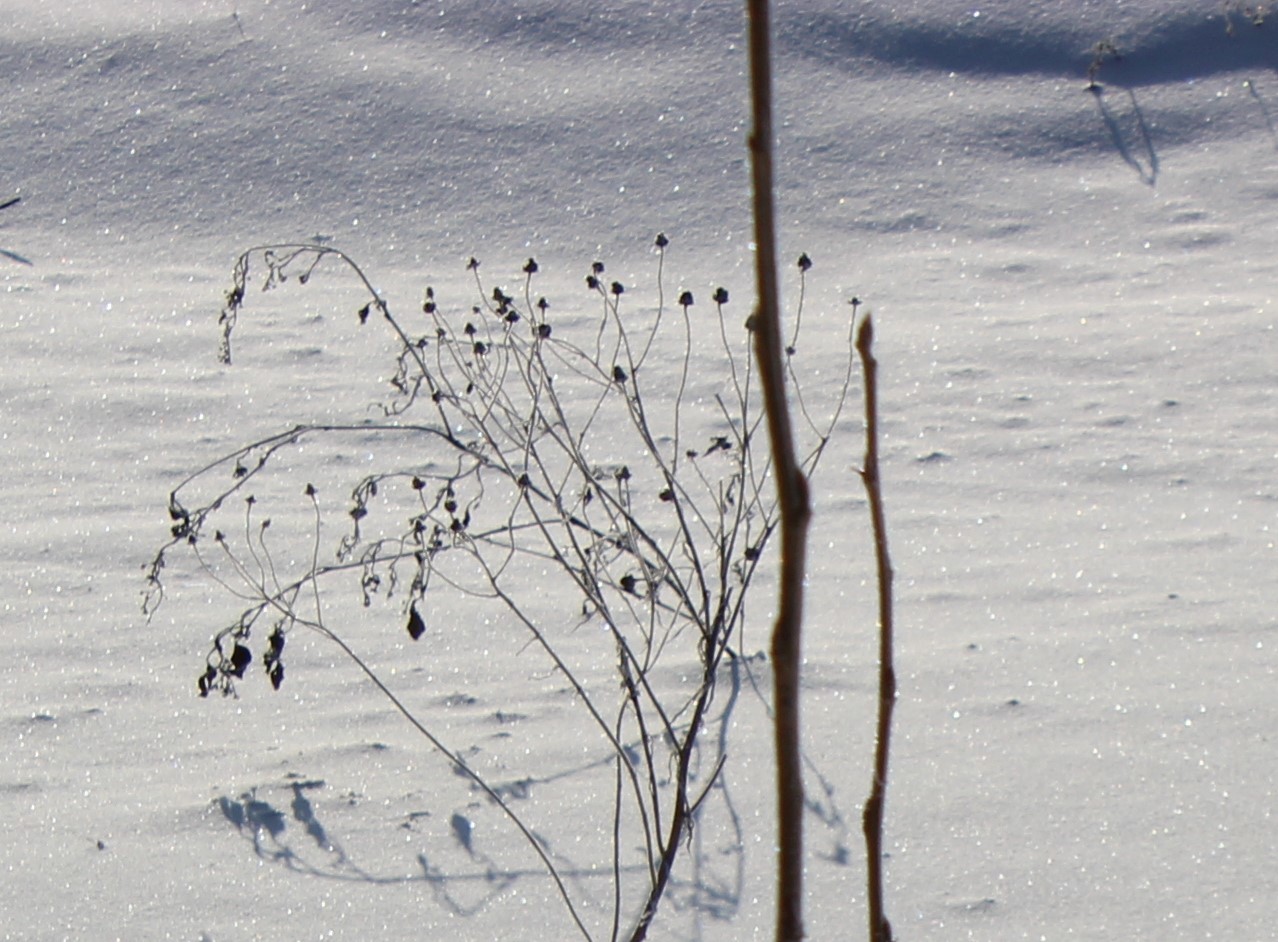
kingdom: Plantae
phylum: Tracheophyta
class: Magnoliopsida
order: Asterales
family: Asteraceae
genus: Tripleurospermum
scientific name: Tripleurospermum inodorum
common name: Scentless mayweed
